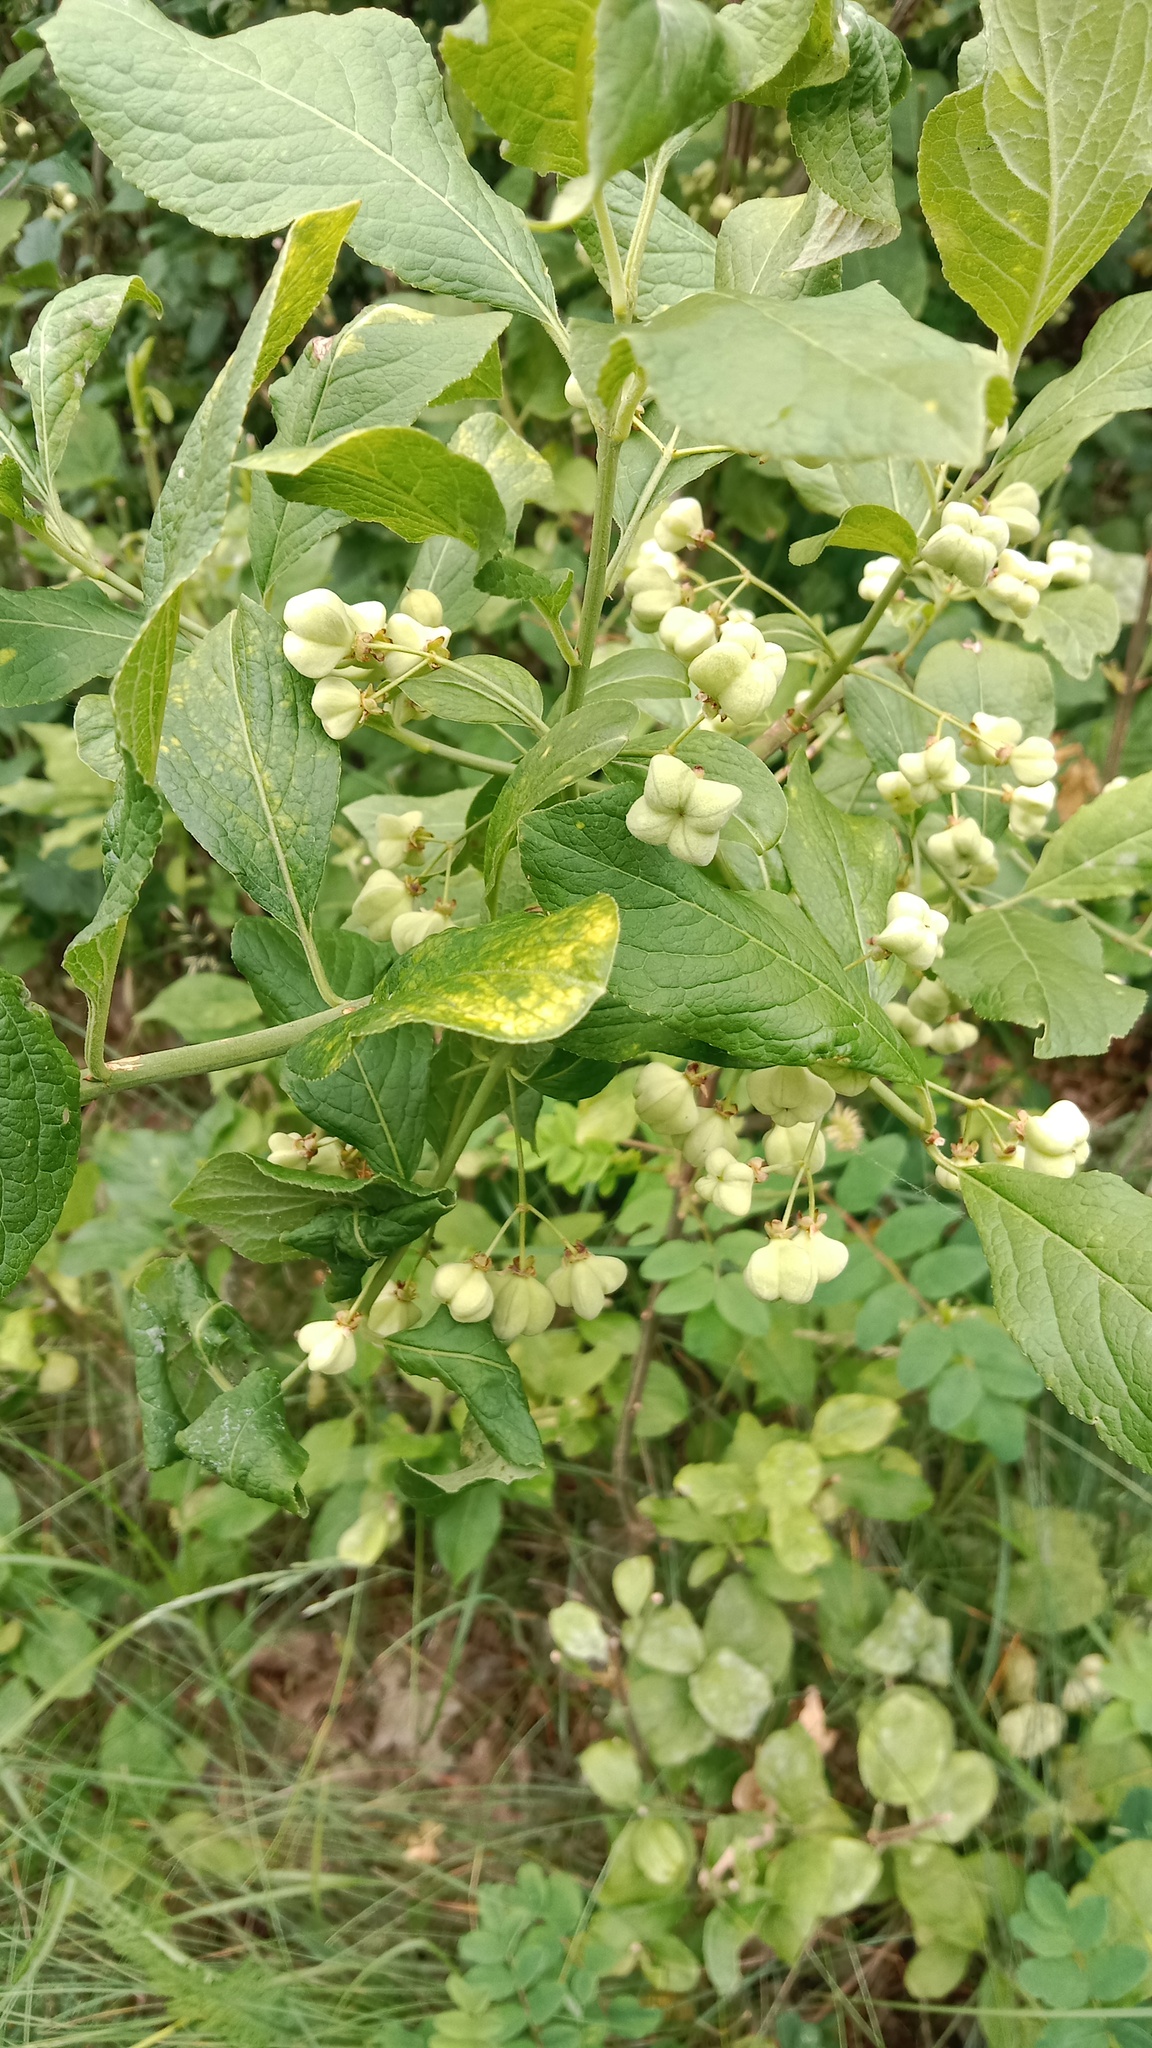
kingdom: Plantae
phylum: Tracheophyta
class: Magnoliopsida
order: Celastrales
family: Celastraceae
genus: Euonymus
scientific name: Euonymus europaeus
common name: Spindle
